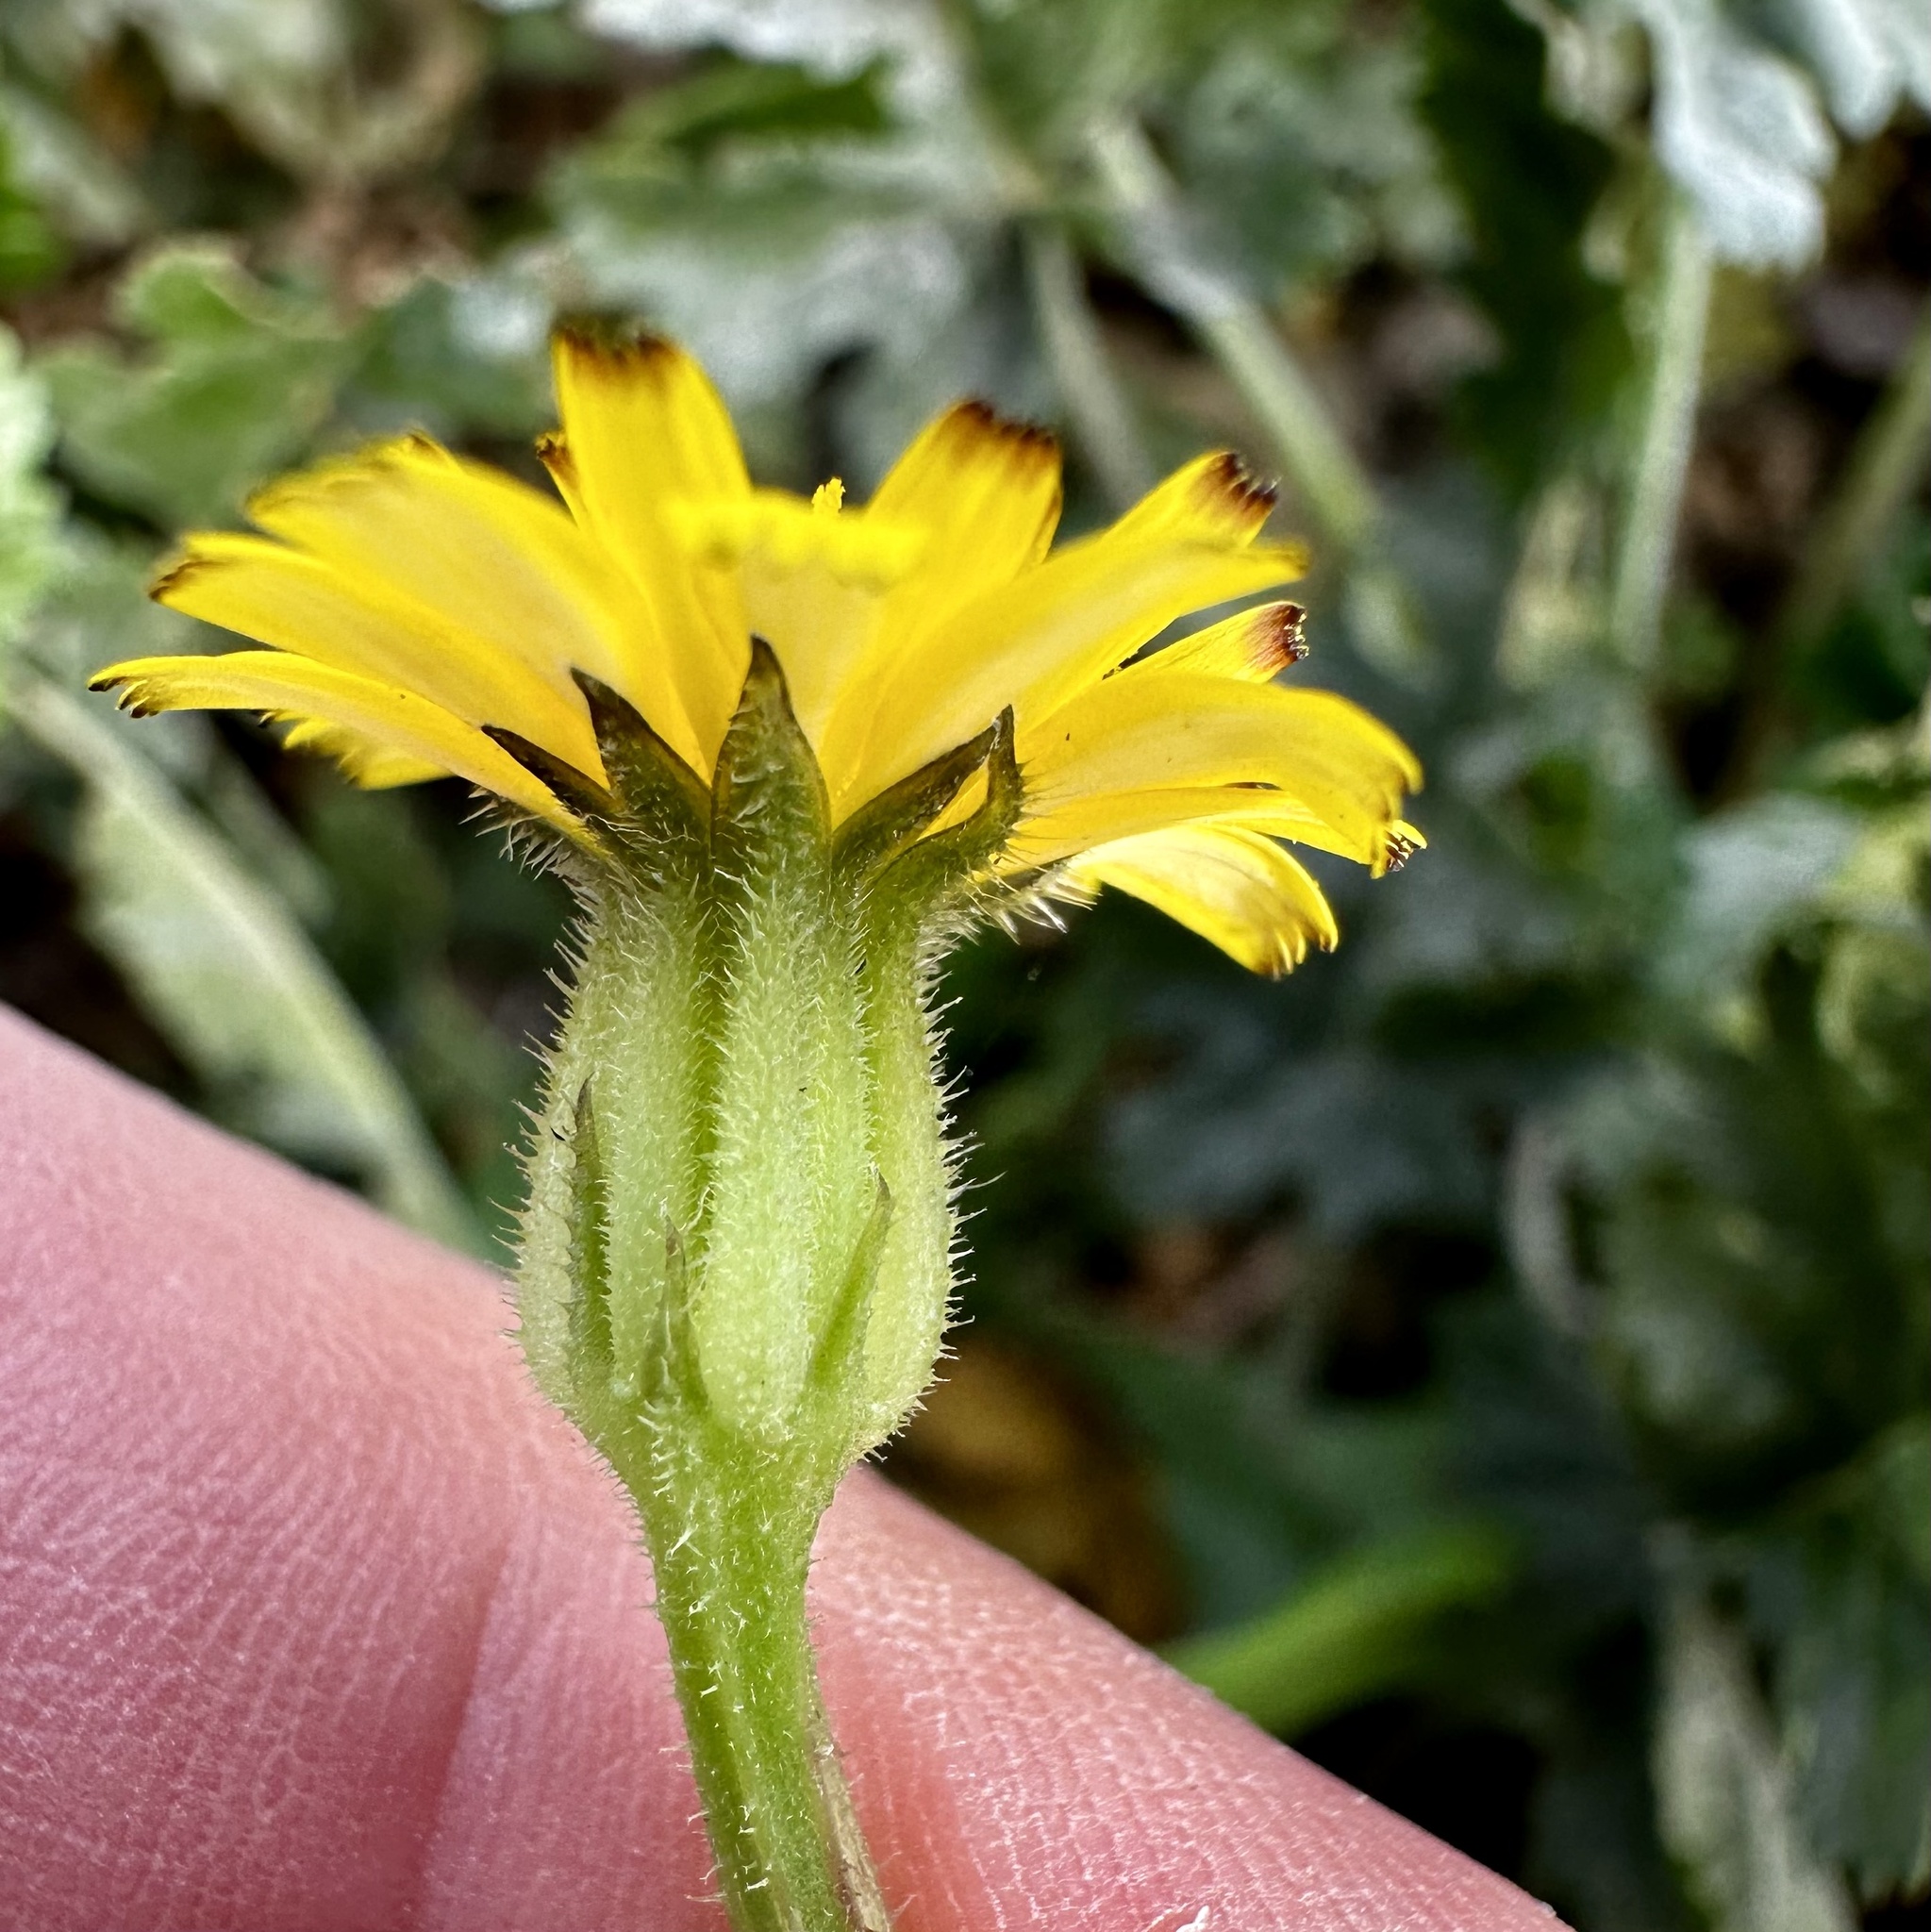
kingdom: Plantae
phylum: Tracheophyta
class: Magnoliopsida
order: Asterales
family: Asteraceae
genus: Hedypnois
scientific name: Hedypnois rhagadioloides
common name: Cretan weed
